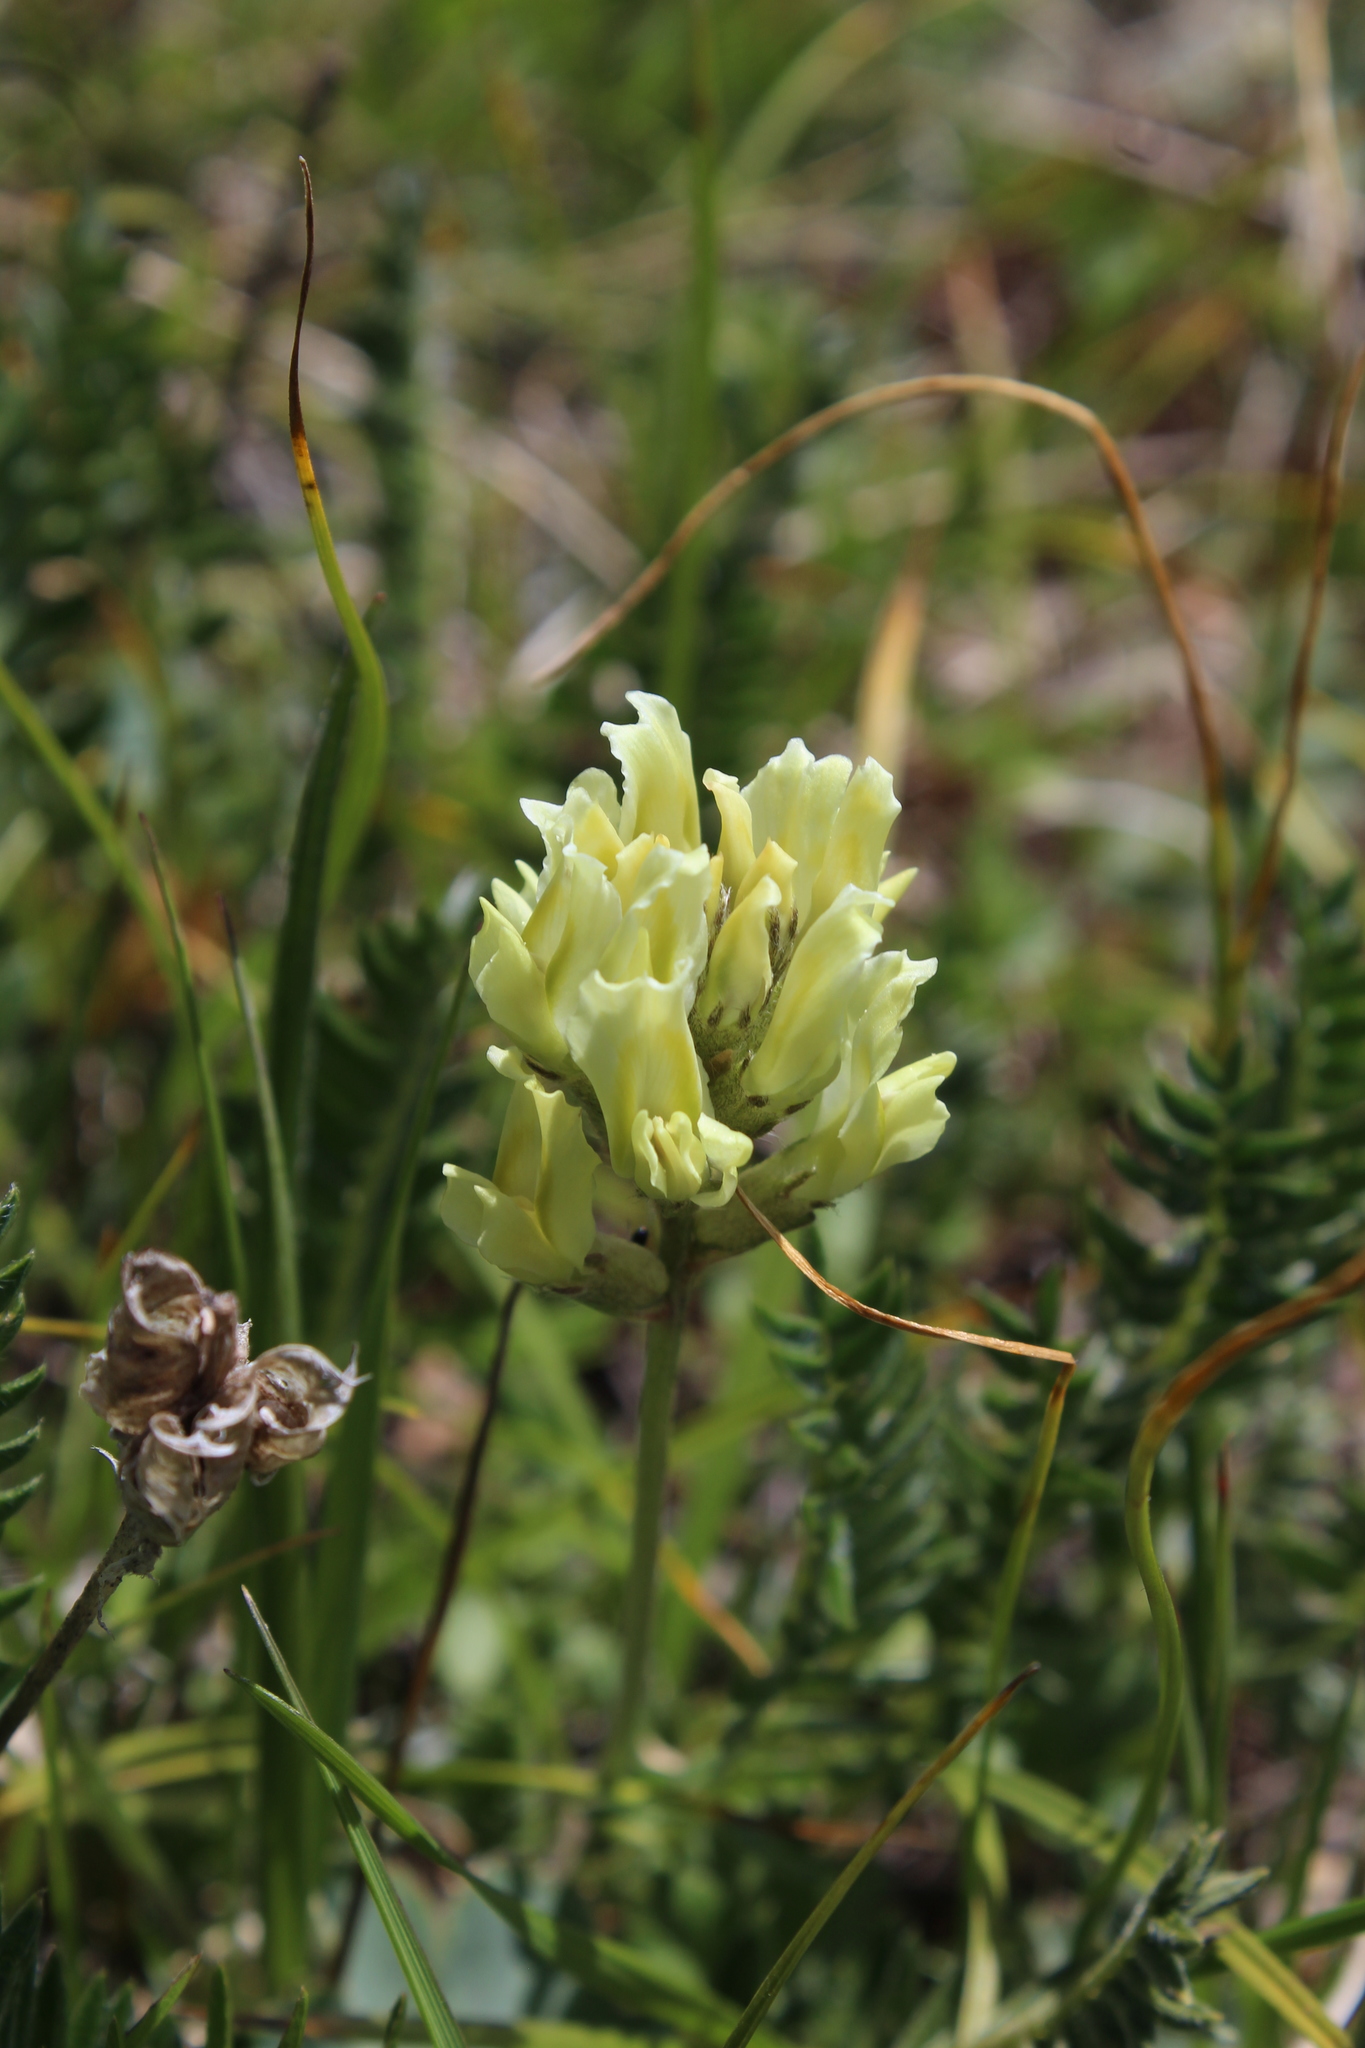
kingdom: Plantae
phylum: Tracheophyta
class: Magnoliopsida
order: Fabales
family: Fabaceae
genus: Oxytropis
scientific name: Oxytropis kubanensis
